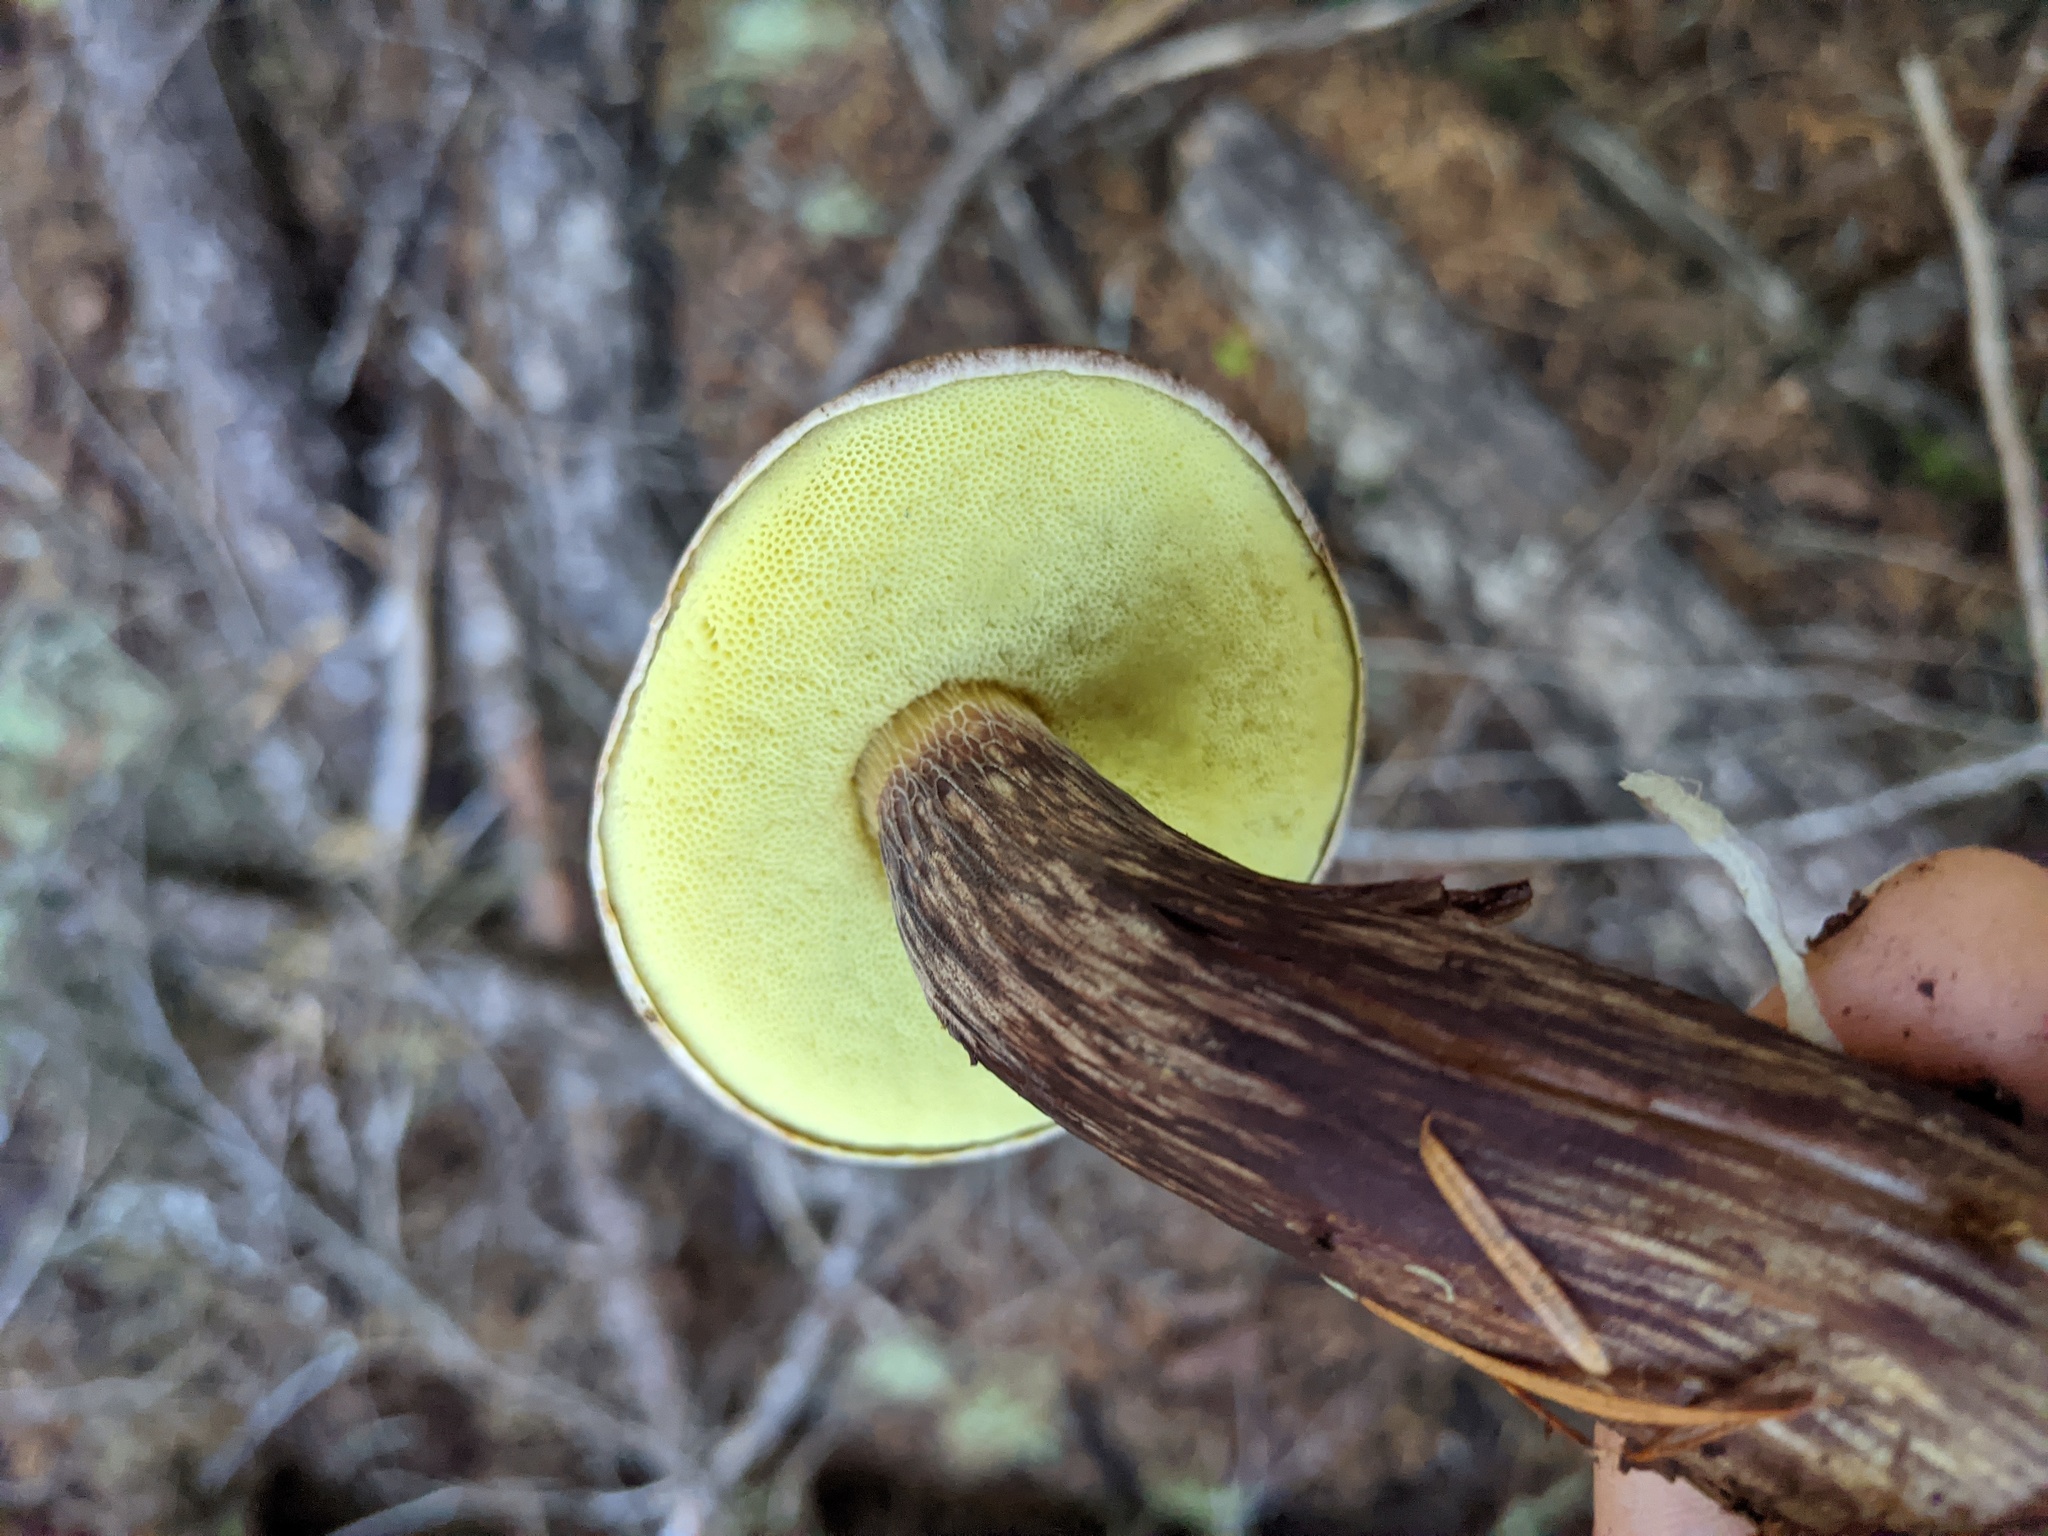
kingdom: Fungi
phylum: Basidiomycota
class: Agaricomycetes
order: Boletales
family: Boletaceae
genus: Aureoboletus
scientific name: Aureoboletus mirabilis
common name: Admirable bolete
